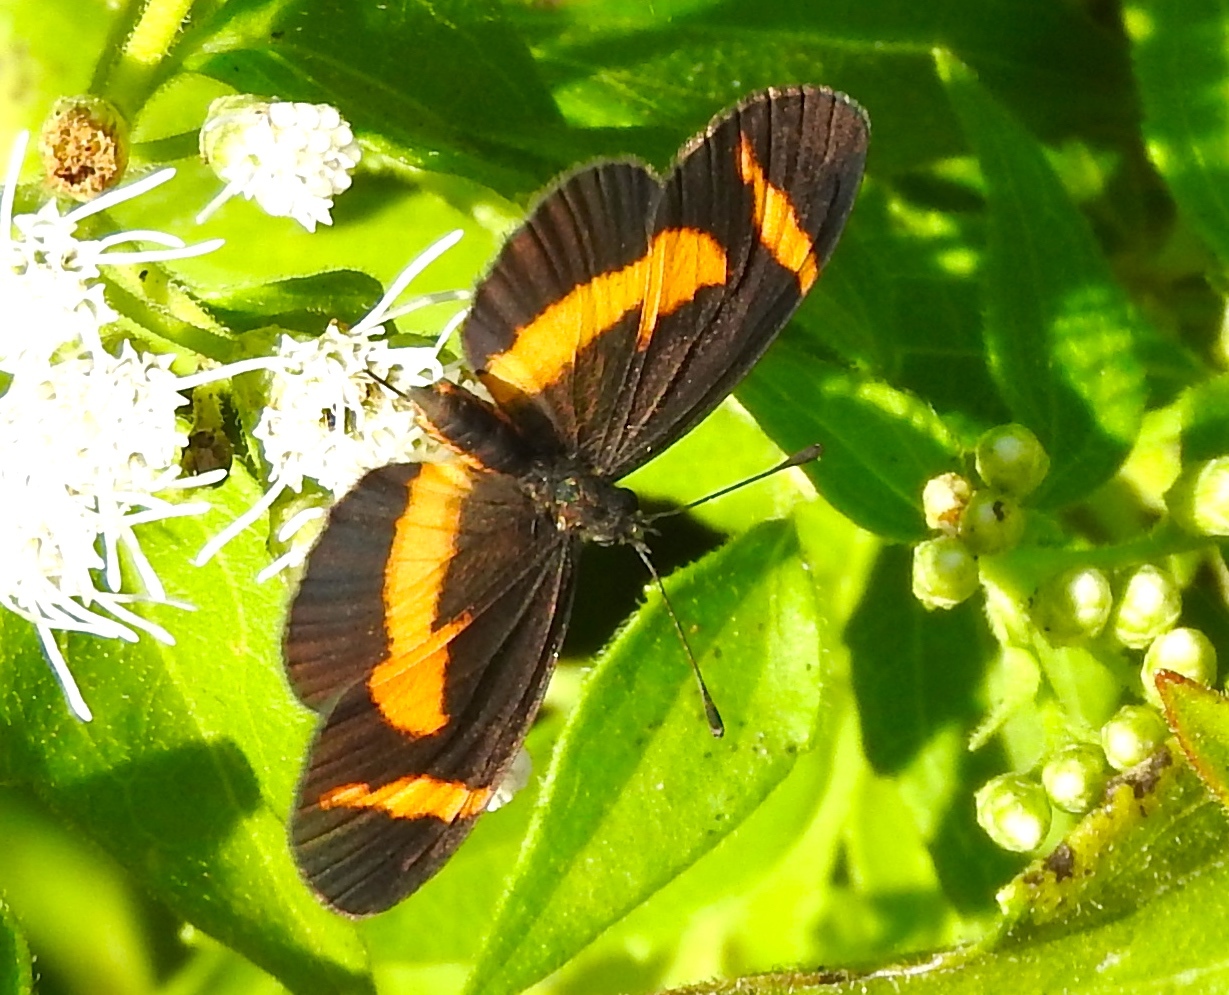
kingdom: Animalia
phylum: Arthropoda
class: Insecta
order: Lepidoptera
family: Nymphalidae
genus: Microtia
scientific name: Microtia elva
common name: Elf
